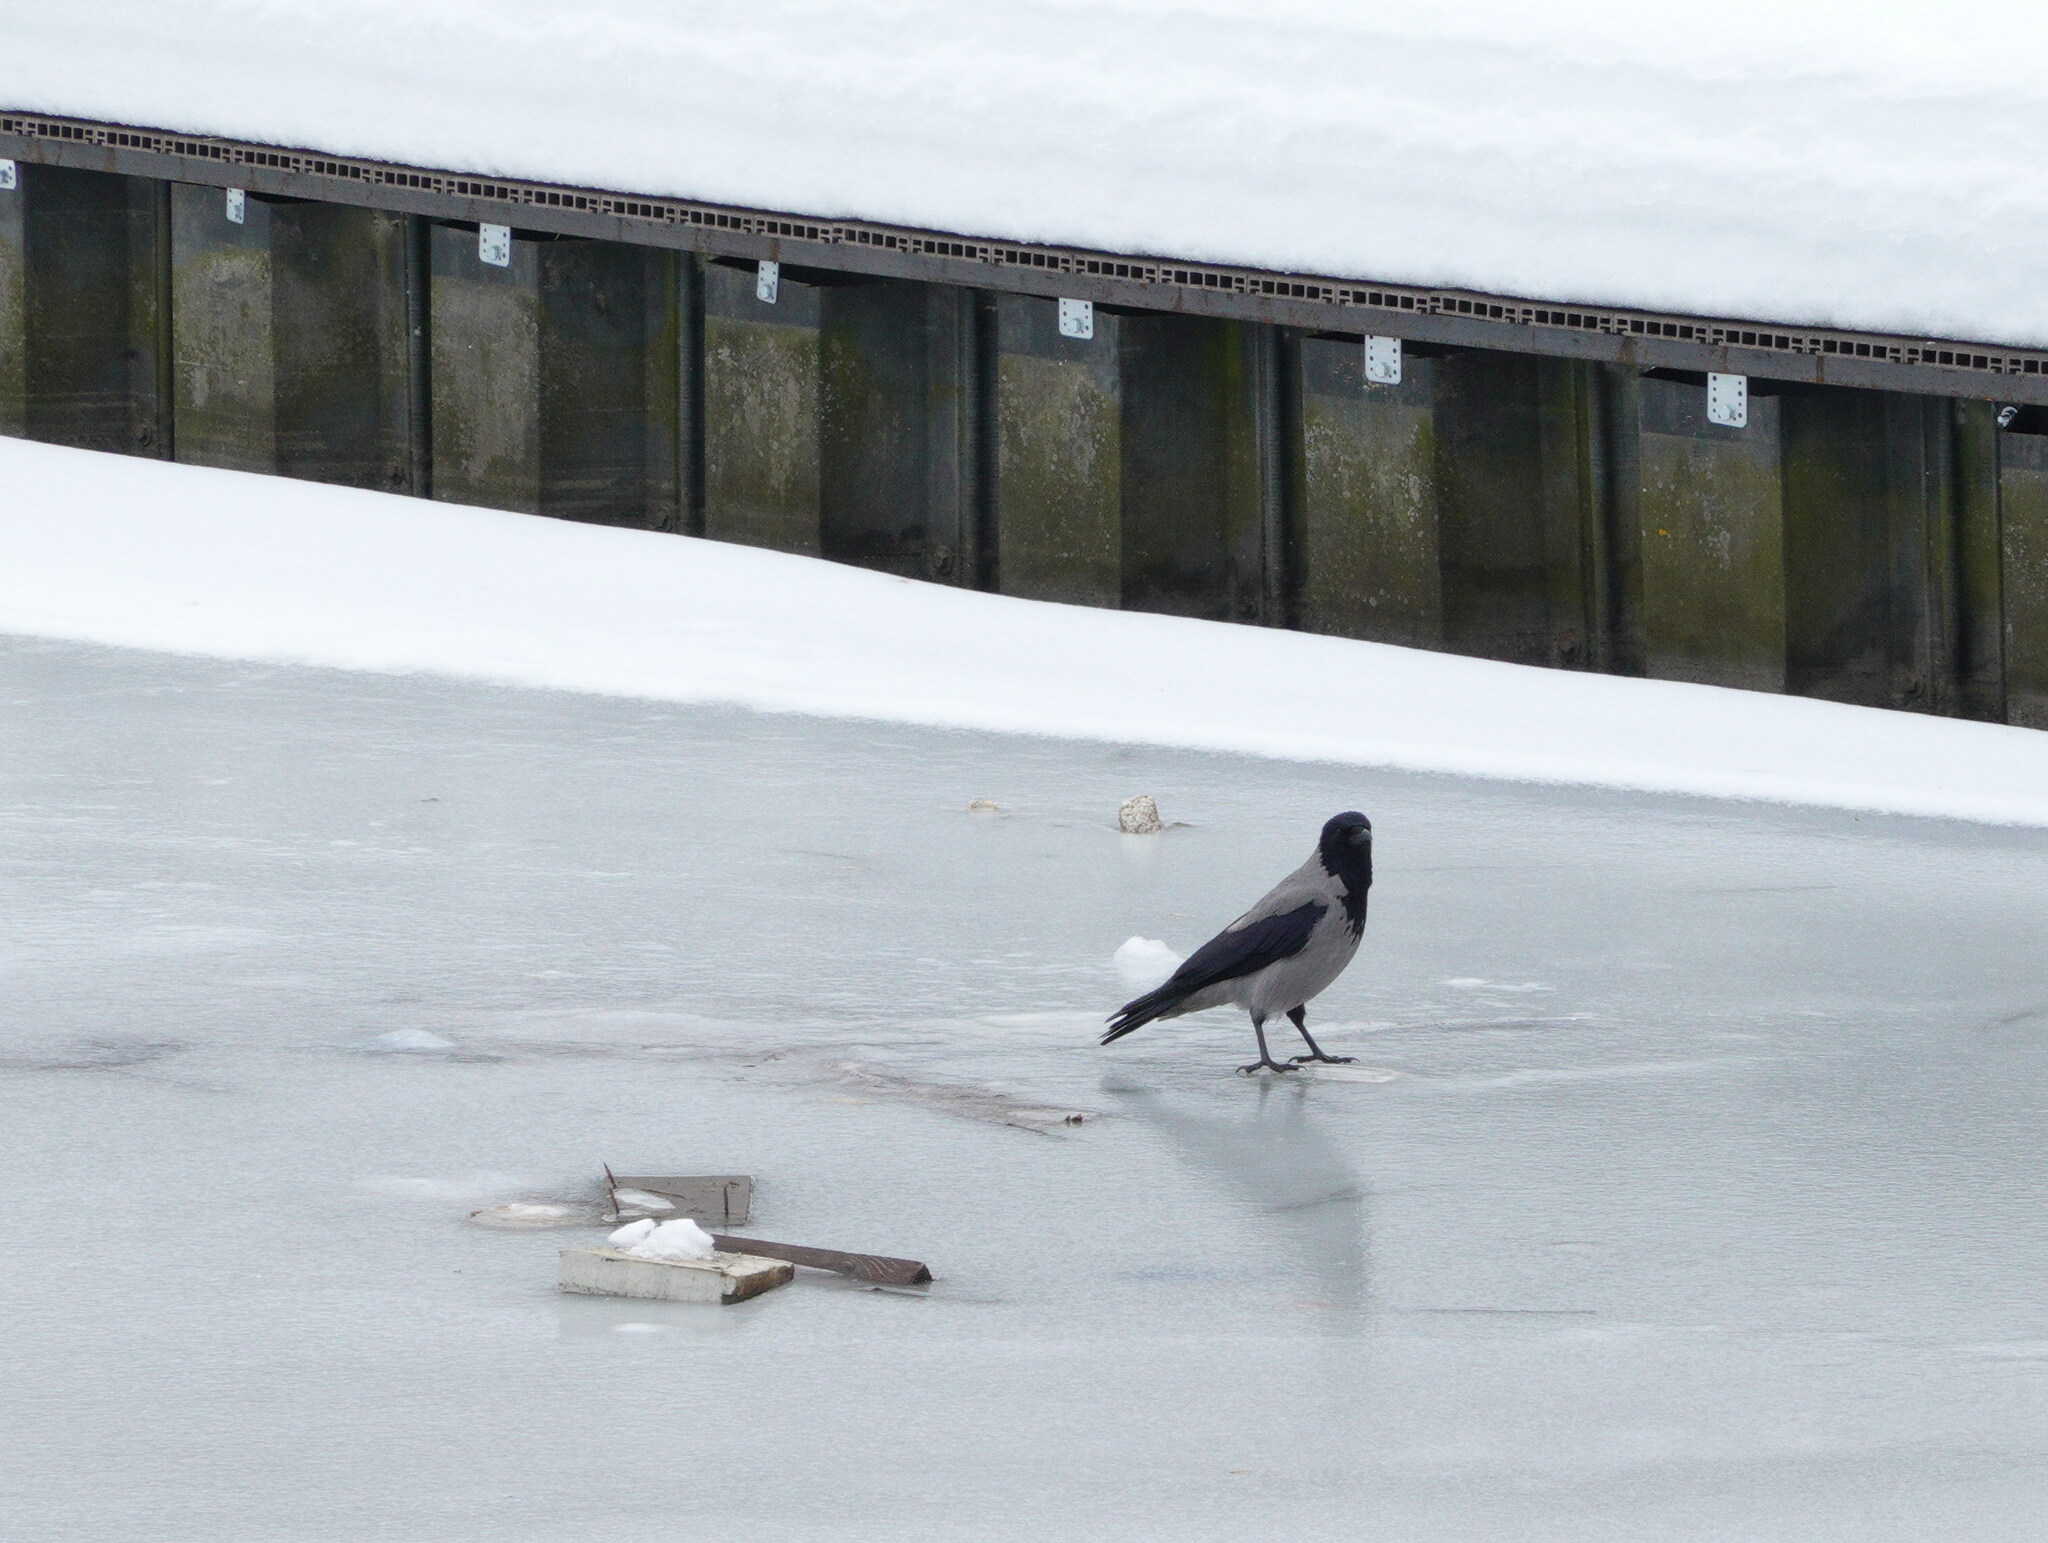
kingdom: Animalia
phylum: Chordata
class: Aves
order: Passeriformes
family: Corvidae
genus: Corvus
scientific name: Corvus cornix
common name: Hooded crow
